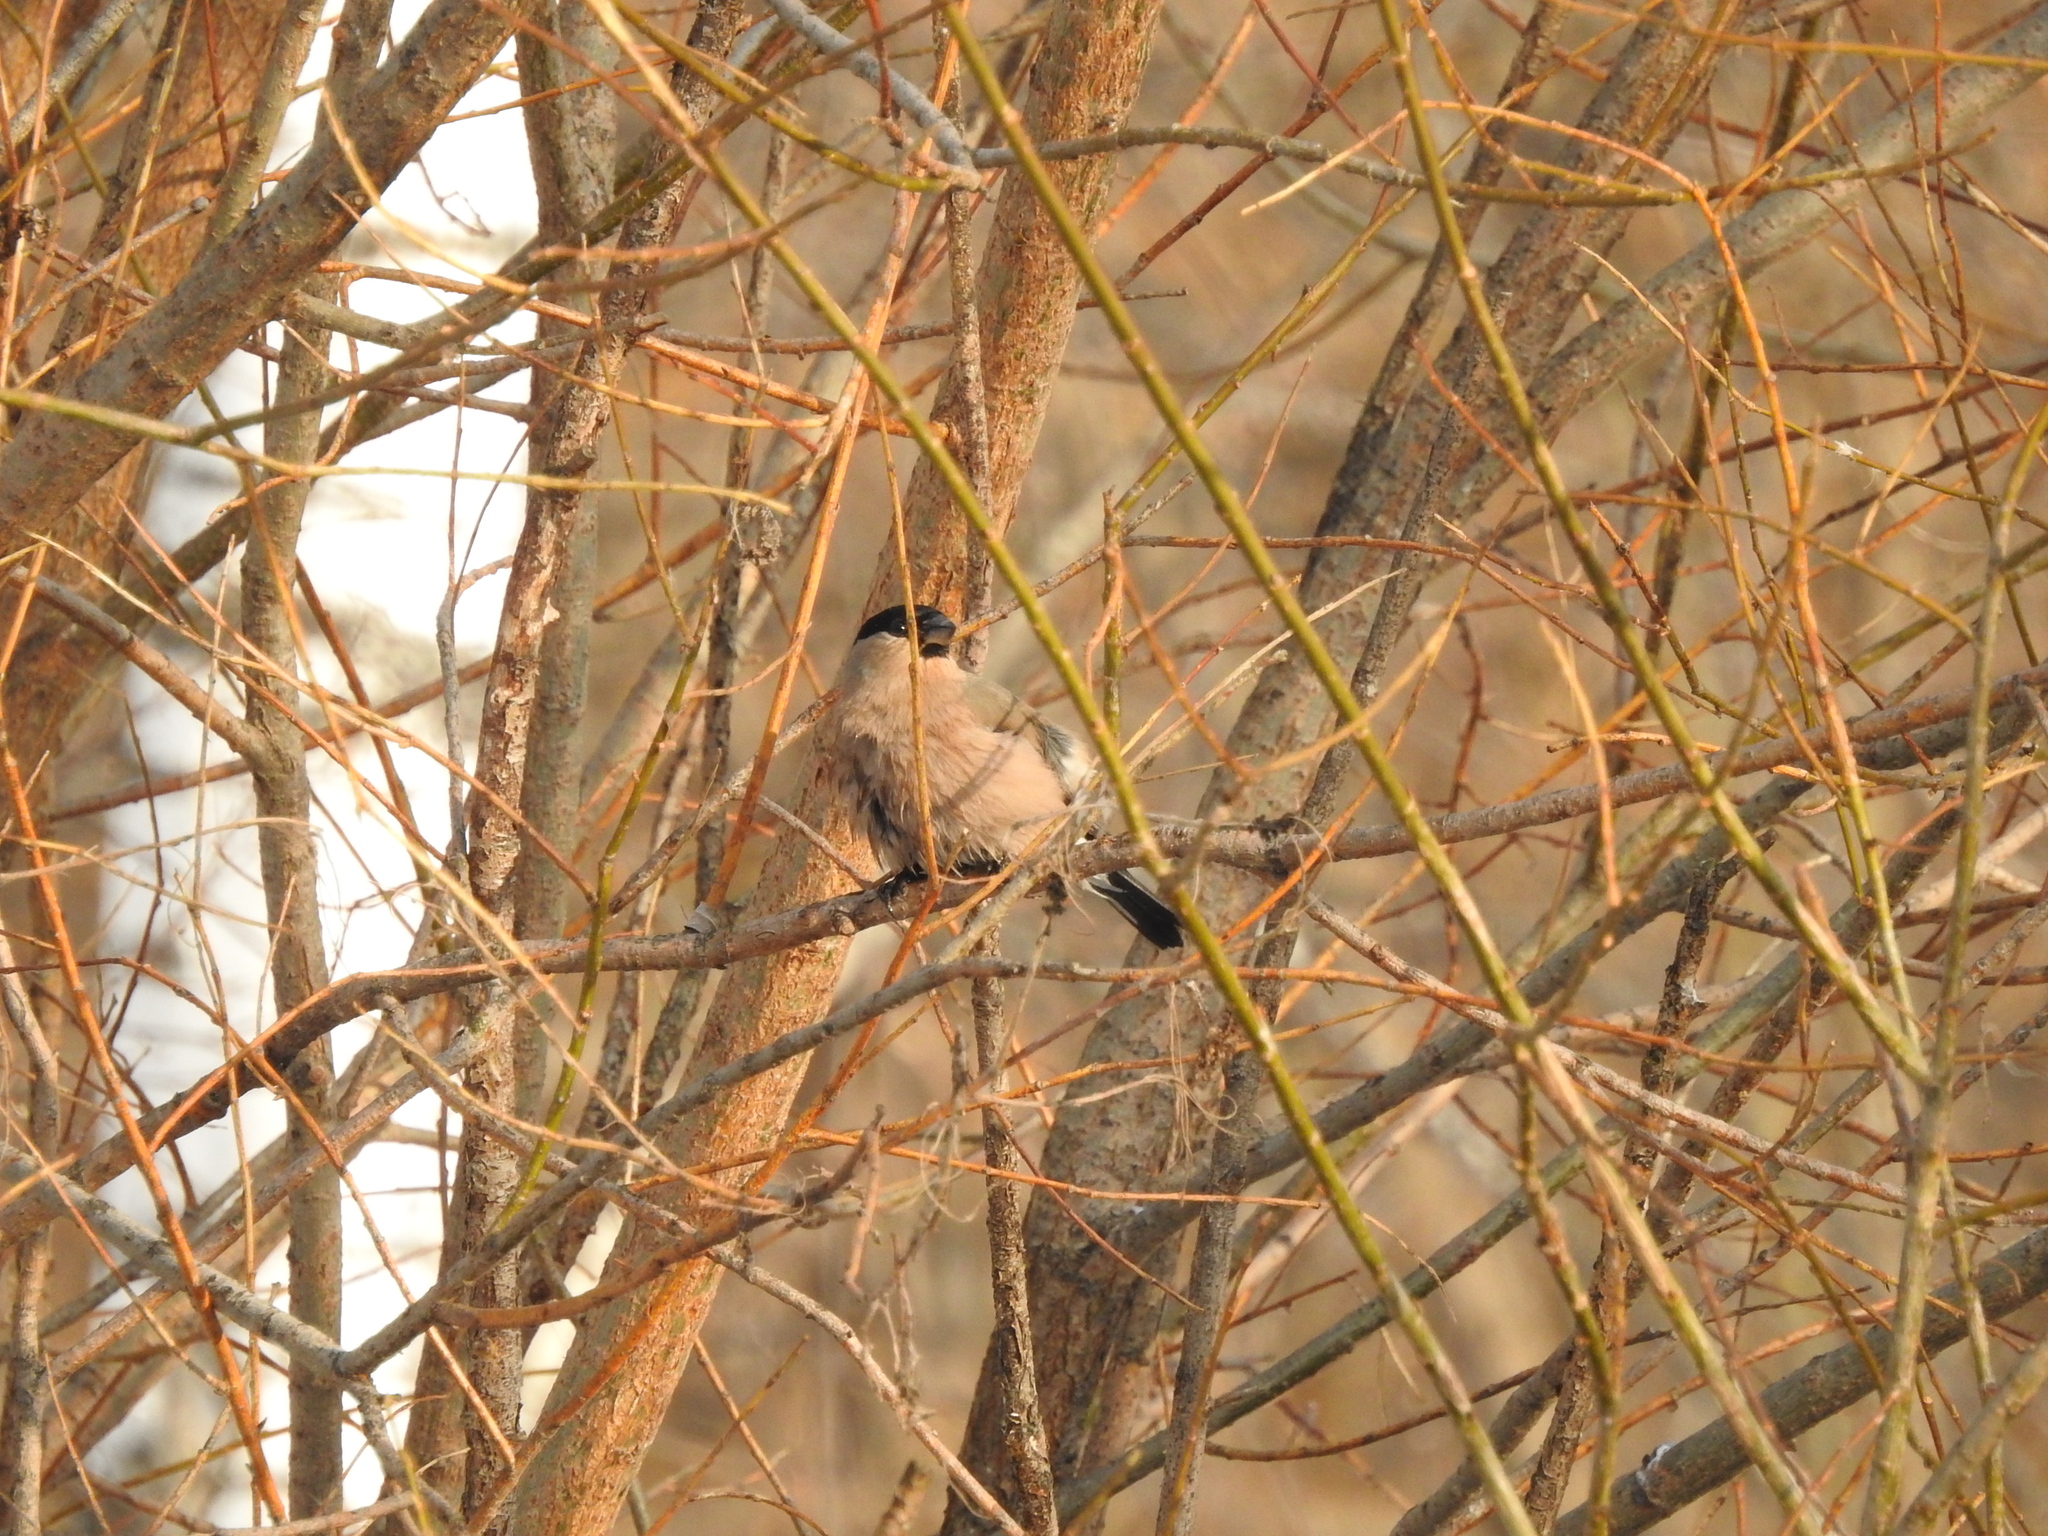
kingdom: Animalia
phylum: Chordata
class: Aves
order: Passeriformes
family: Fringillidae
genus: Pyrrhula
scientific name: Pyrrhula pyrrhula
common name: Eurasian bullfinch
